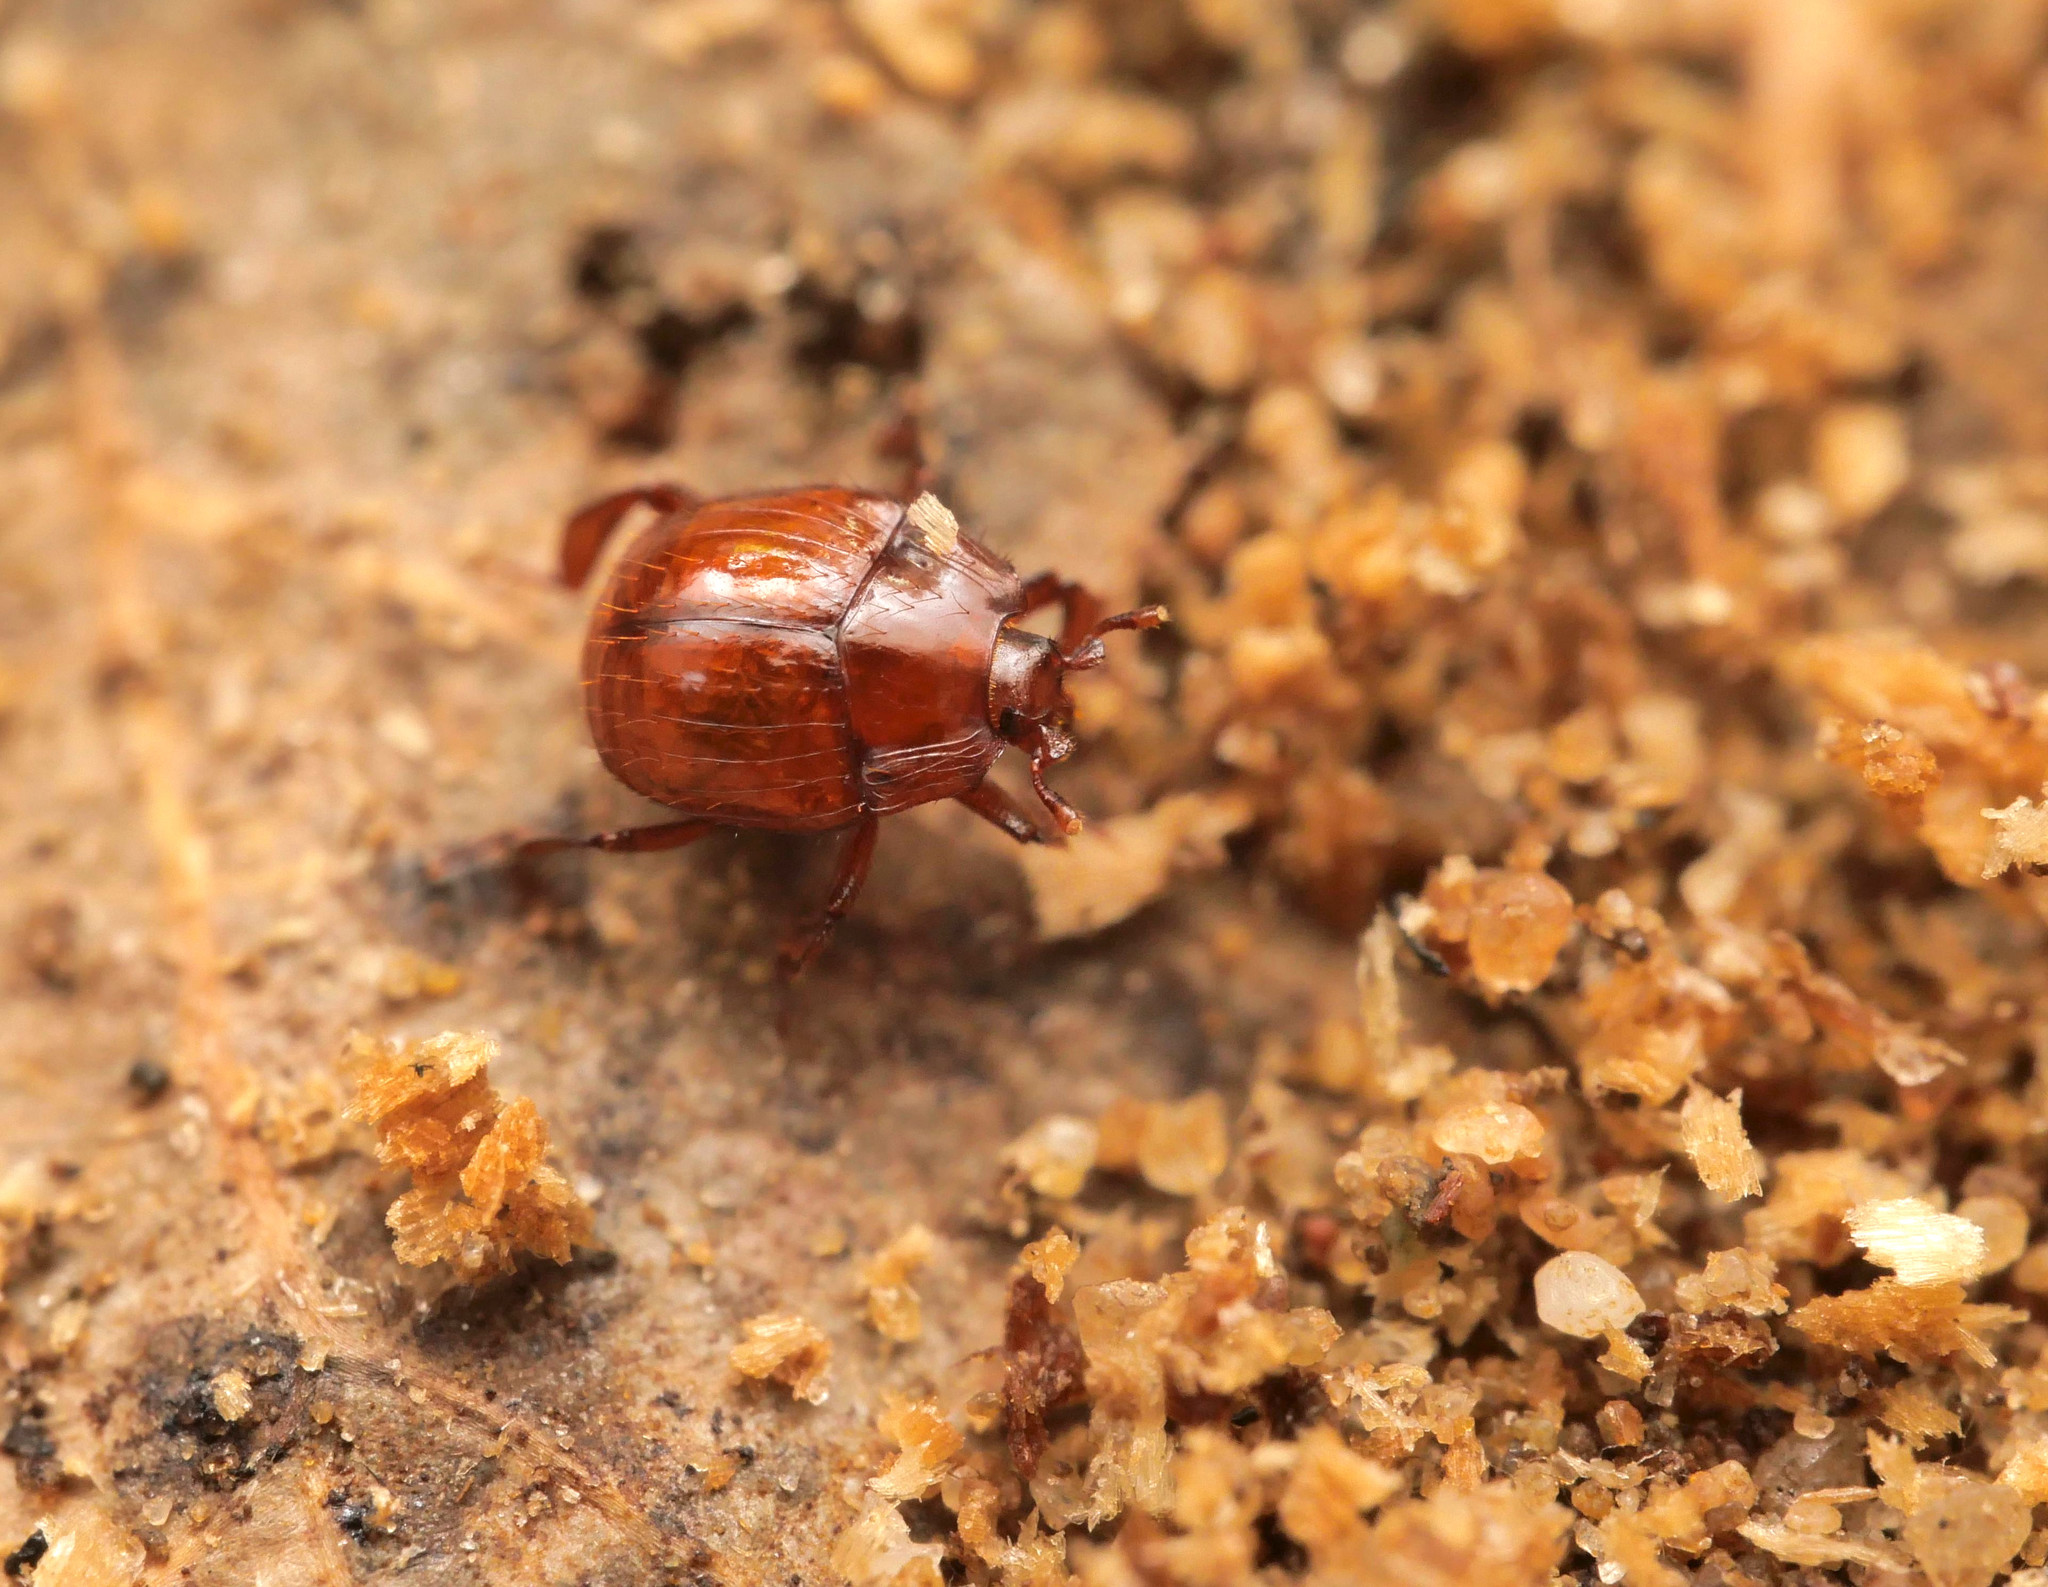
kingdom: Animalia
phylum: Arthropoda
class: Insecta
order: Coleoptera
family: Histeridae
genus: Haeterius
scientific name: Haeterius ferrugineus
